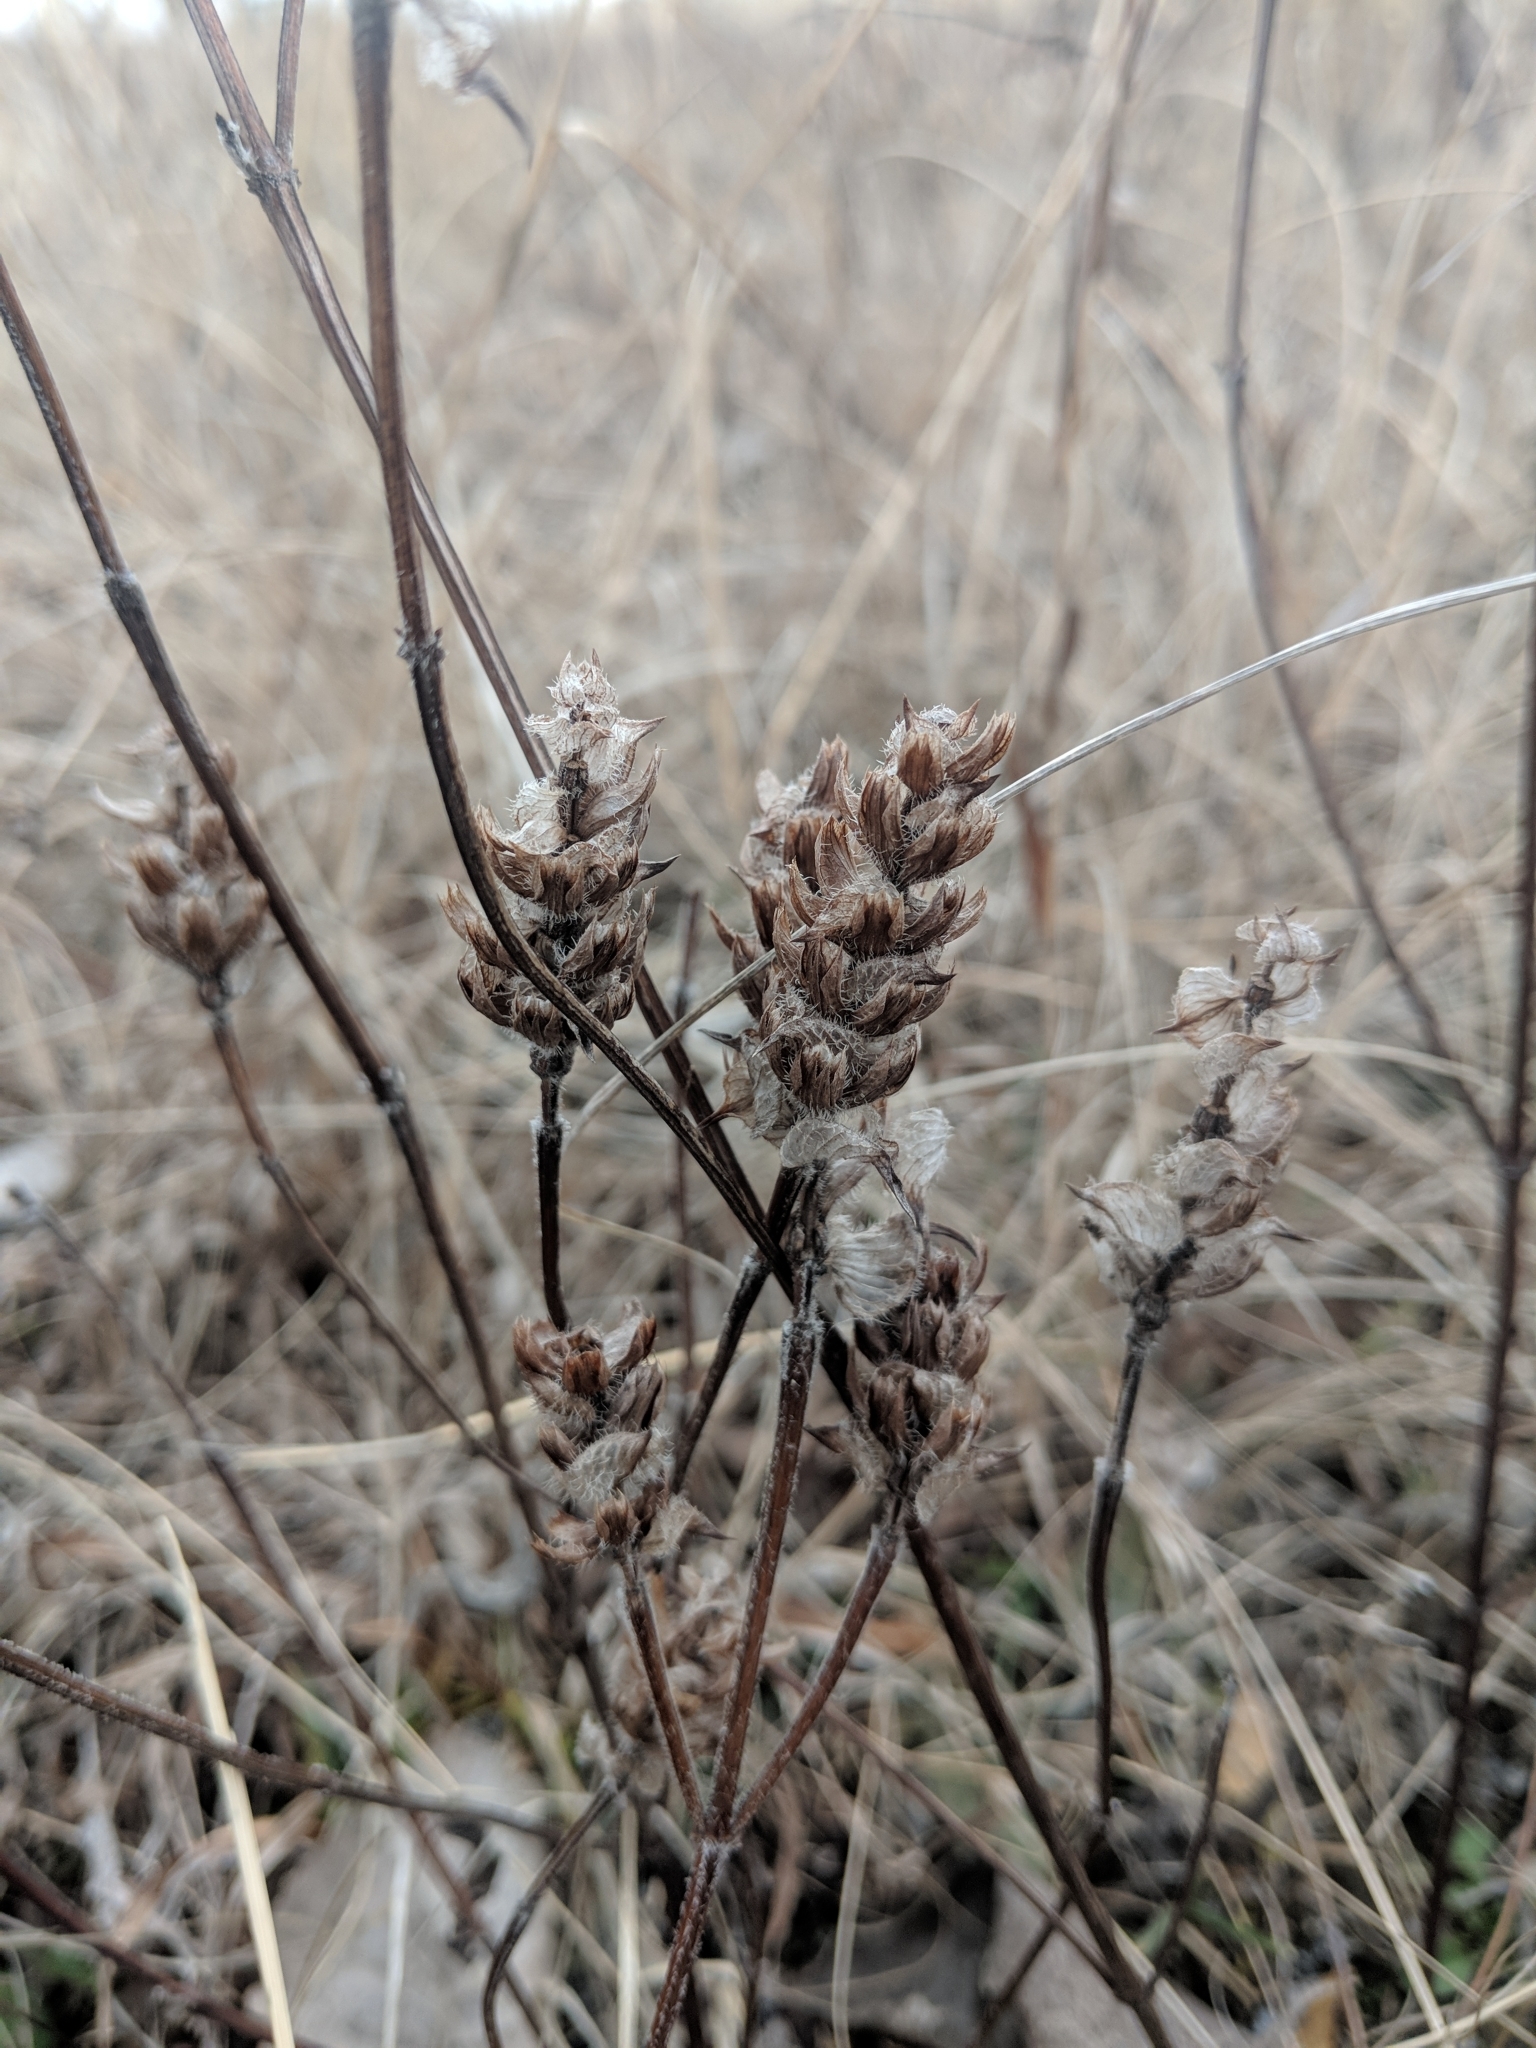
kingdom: Plantae
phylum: Tracheophyta
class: Magnoliopsida
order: Lamiales
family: Lamiaceae
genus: Prunella
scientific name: Prunella vulgaris
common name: Heal-all
